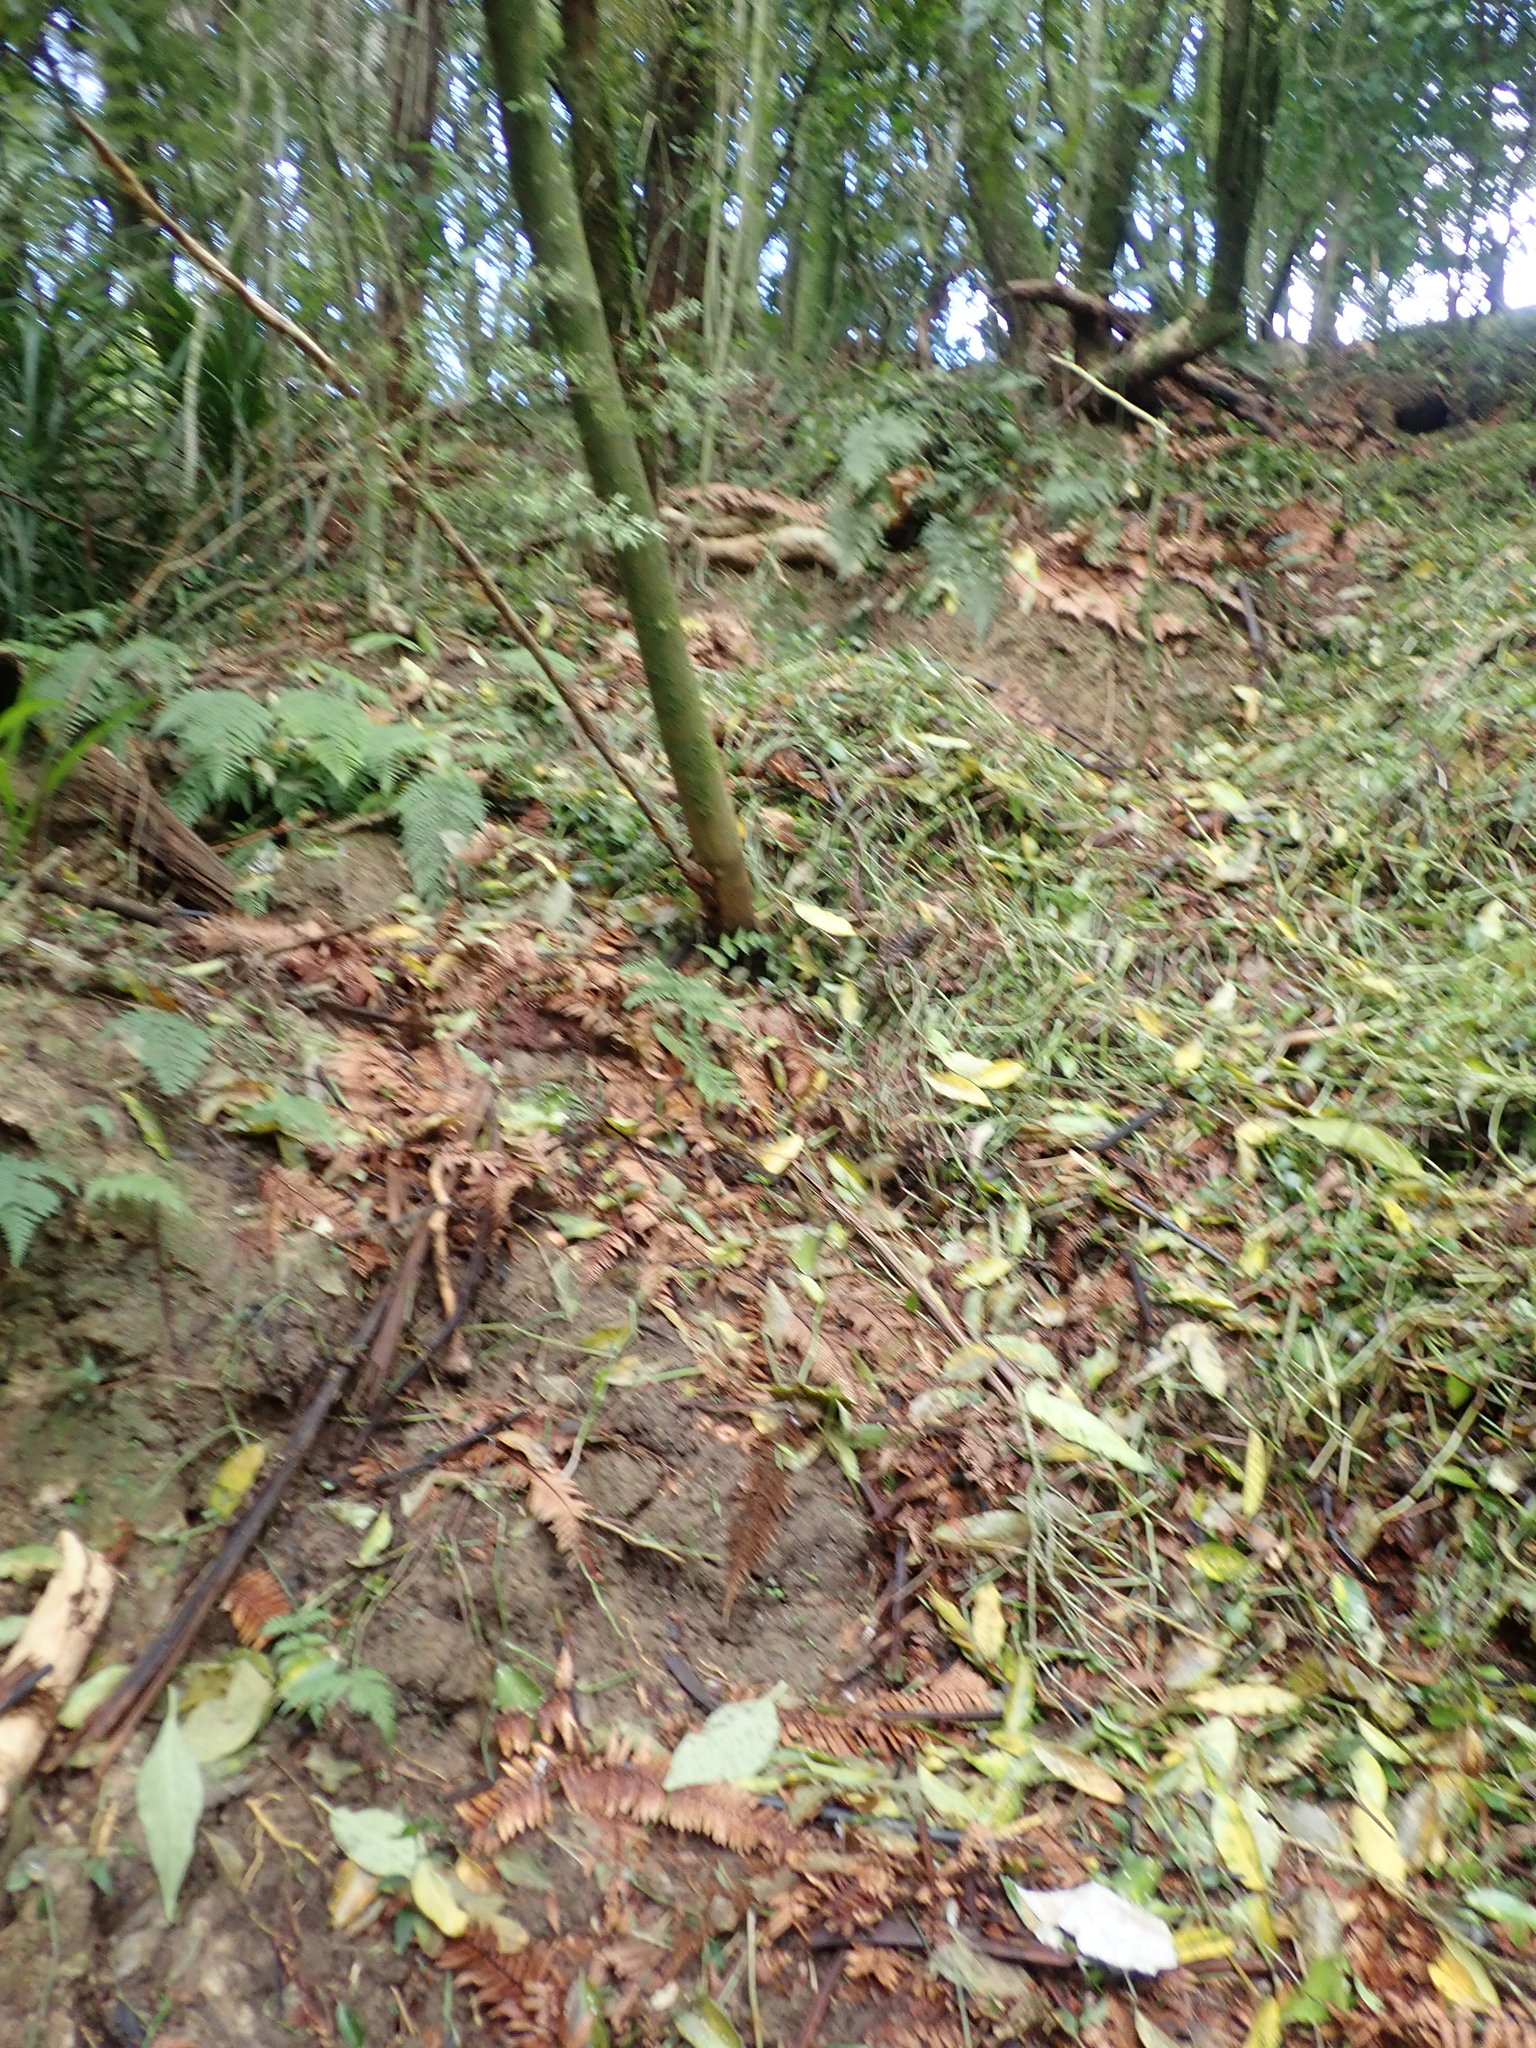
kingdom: Plantae
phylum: Tracheophyta
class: Liliopsida
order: Commelinales
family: Commelinaceae
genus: Tradescantia
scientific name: Tradescantia fluminensis
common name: Wandering-jew
